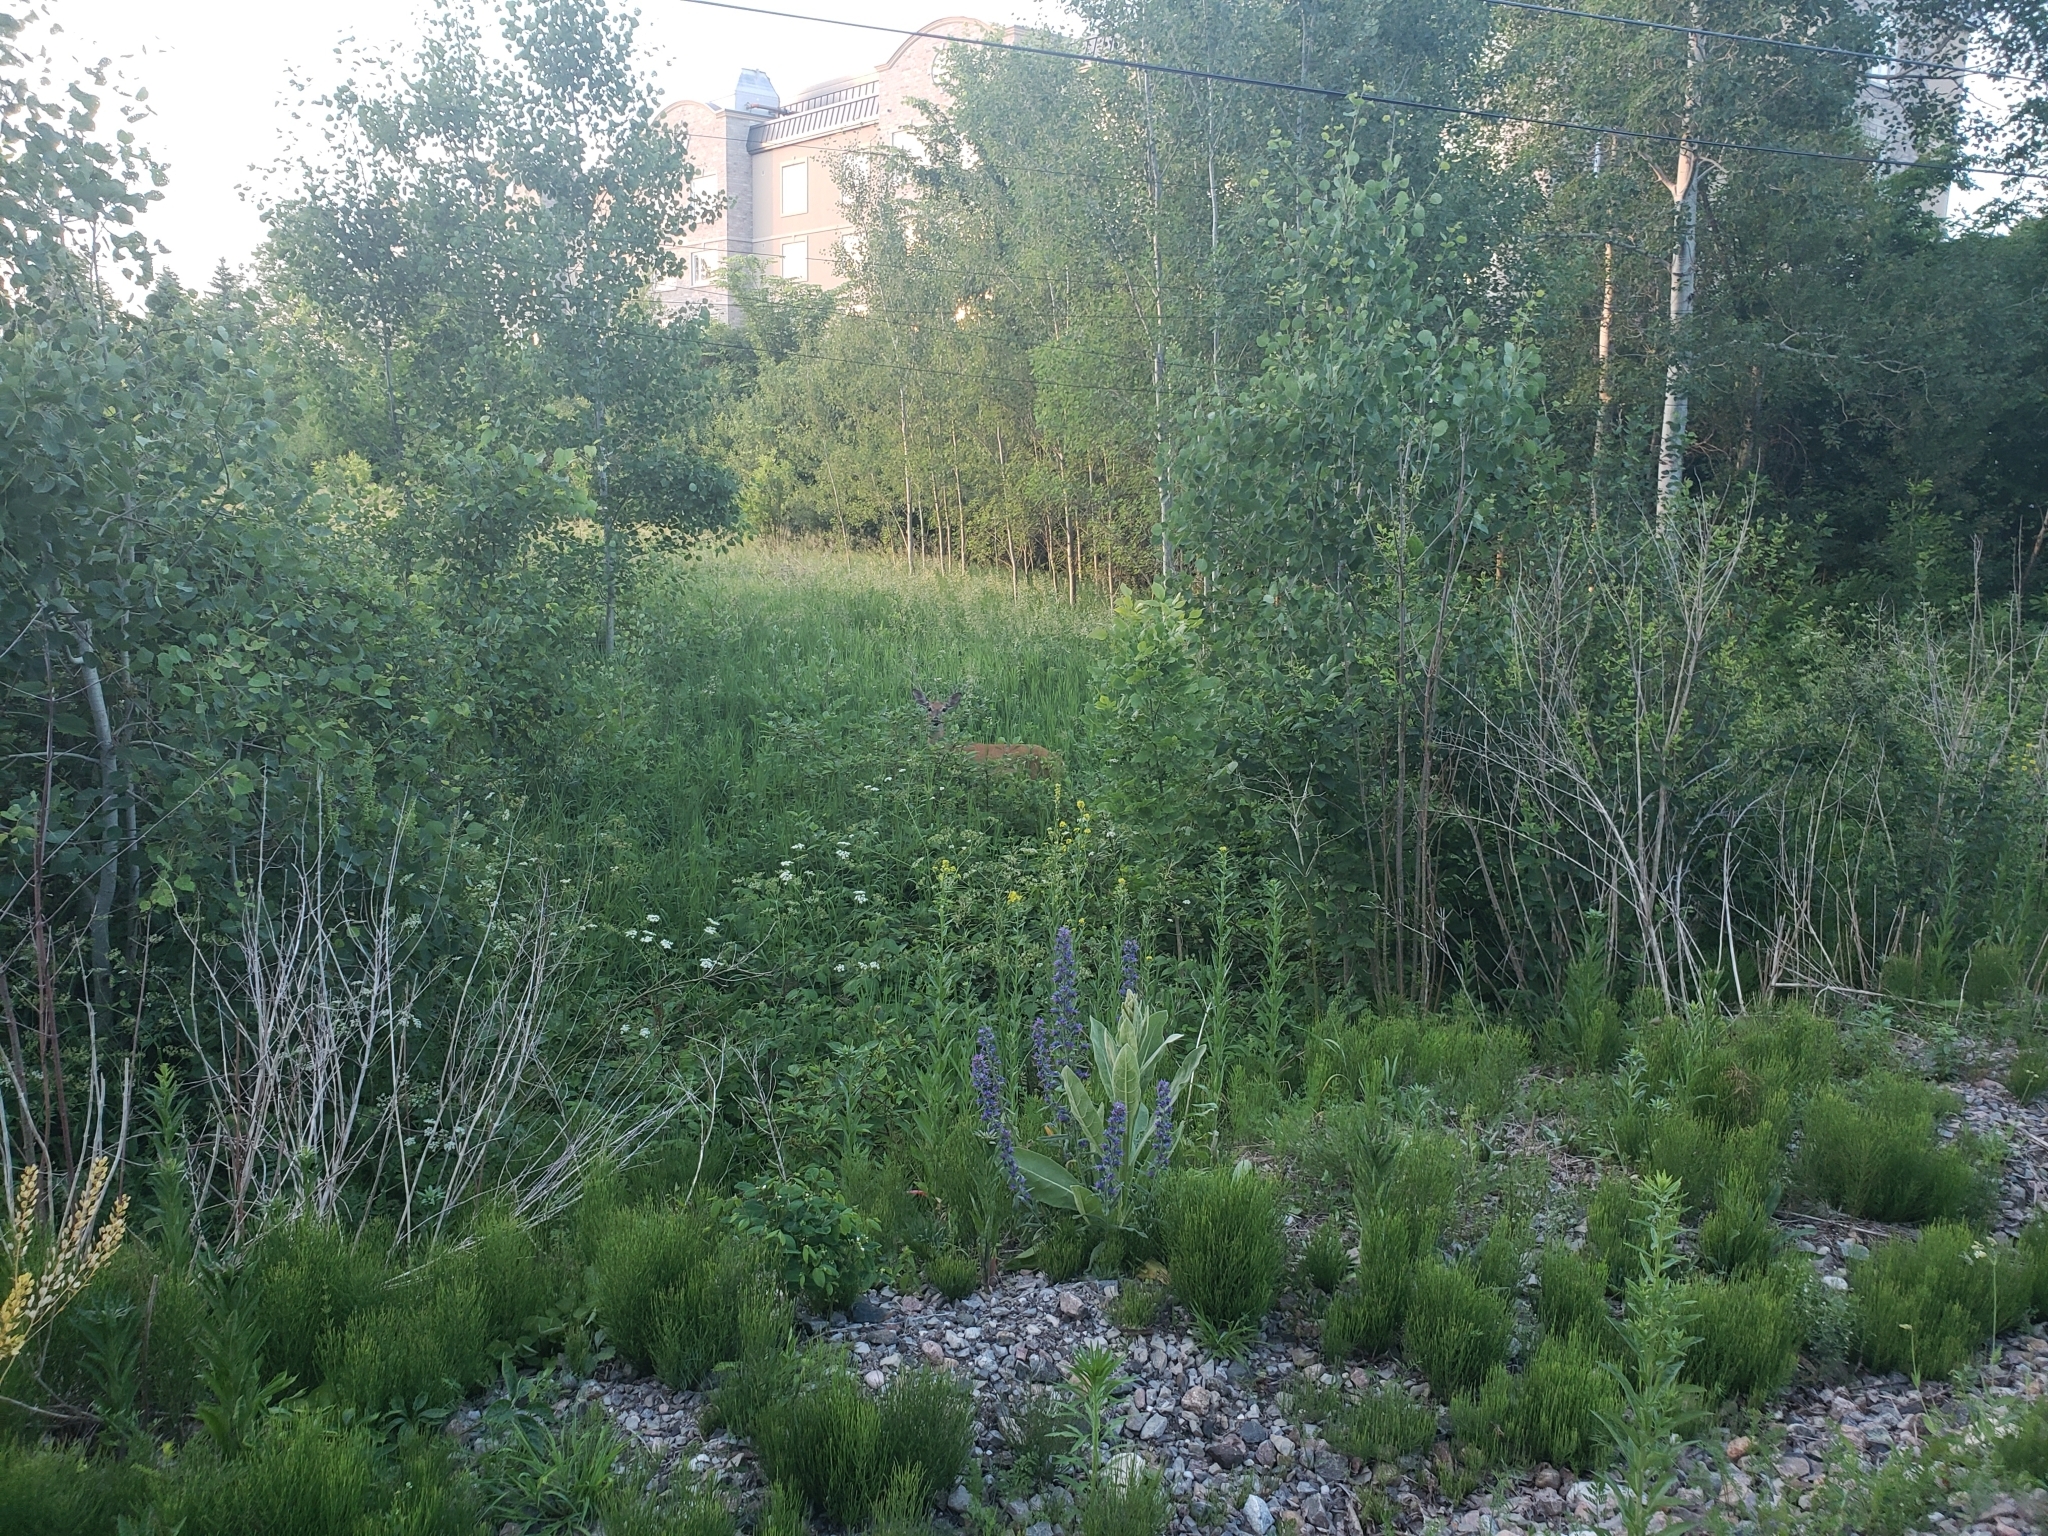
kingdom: Animalia
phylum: Chordata
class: Mammalia
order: Artiodactyla
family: Cervidae
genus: Odocoileus
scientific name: Odocoileus virginianus
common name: White-tailed deer
